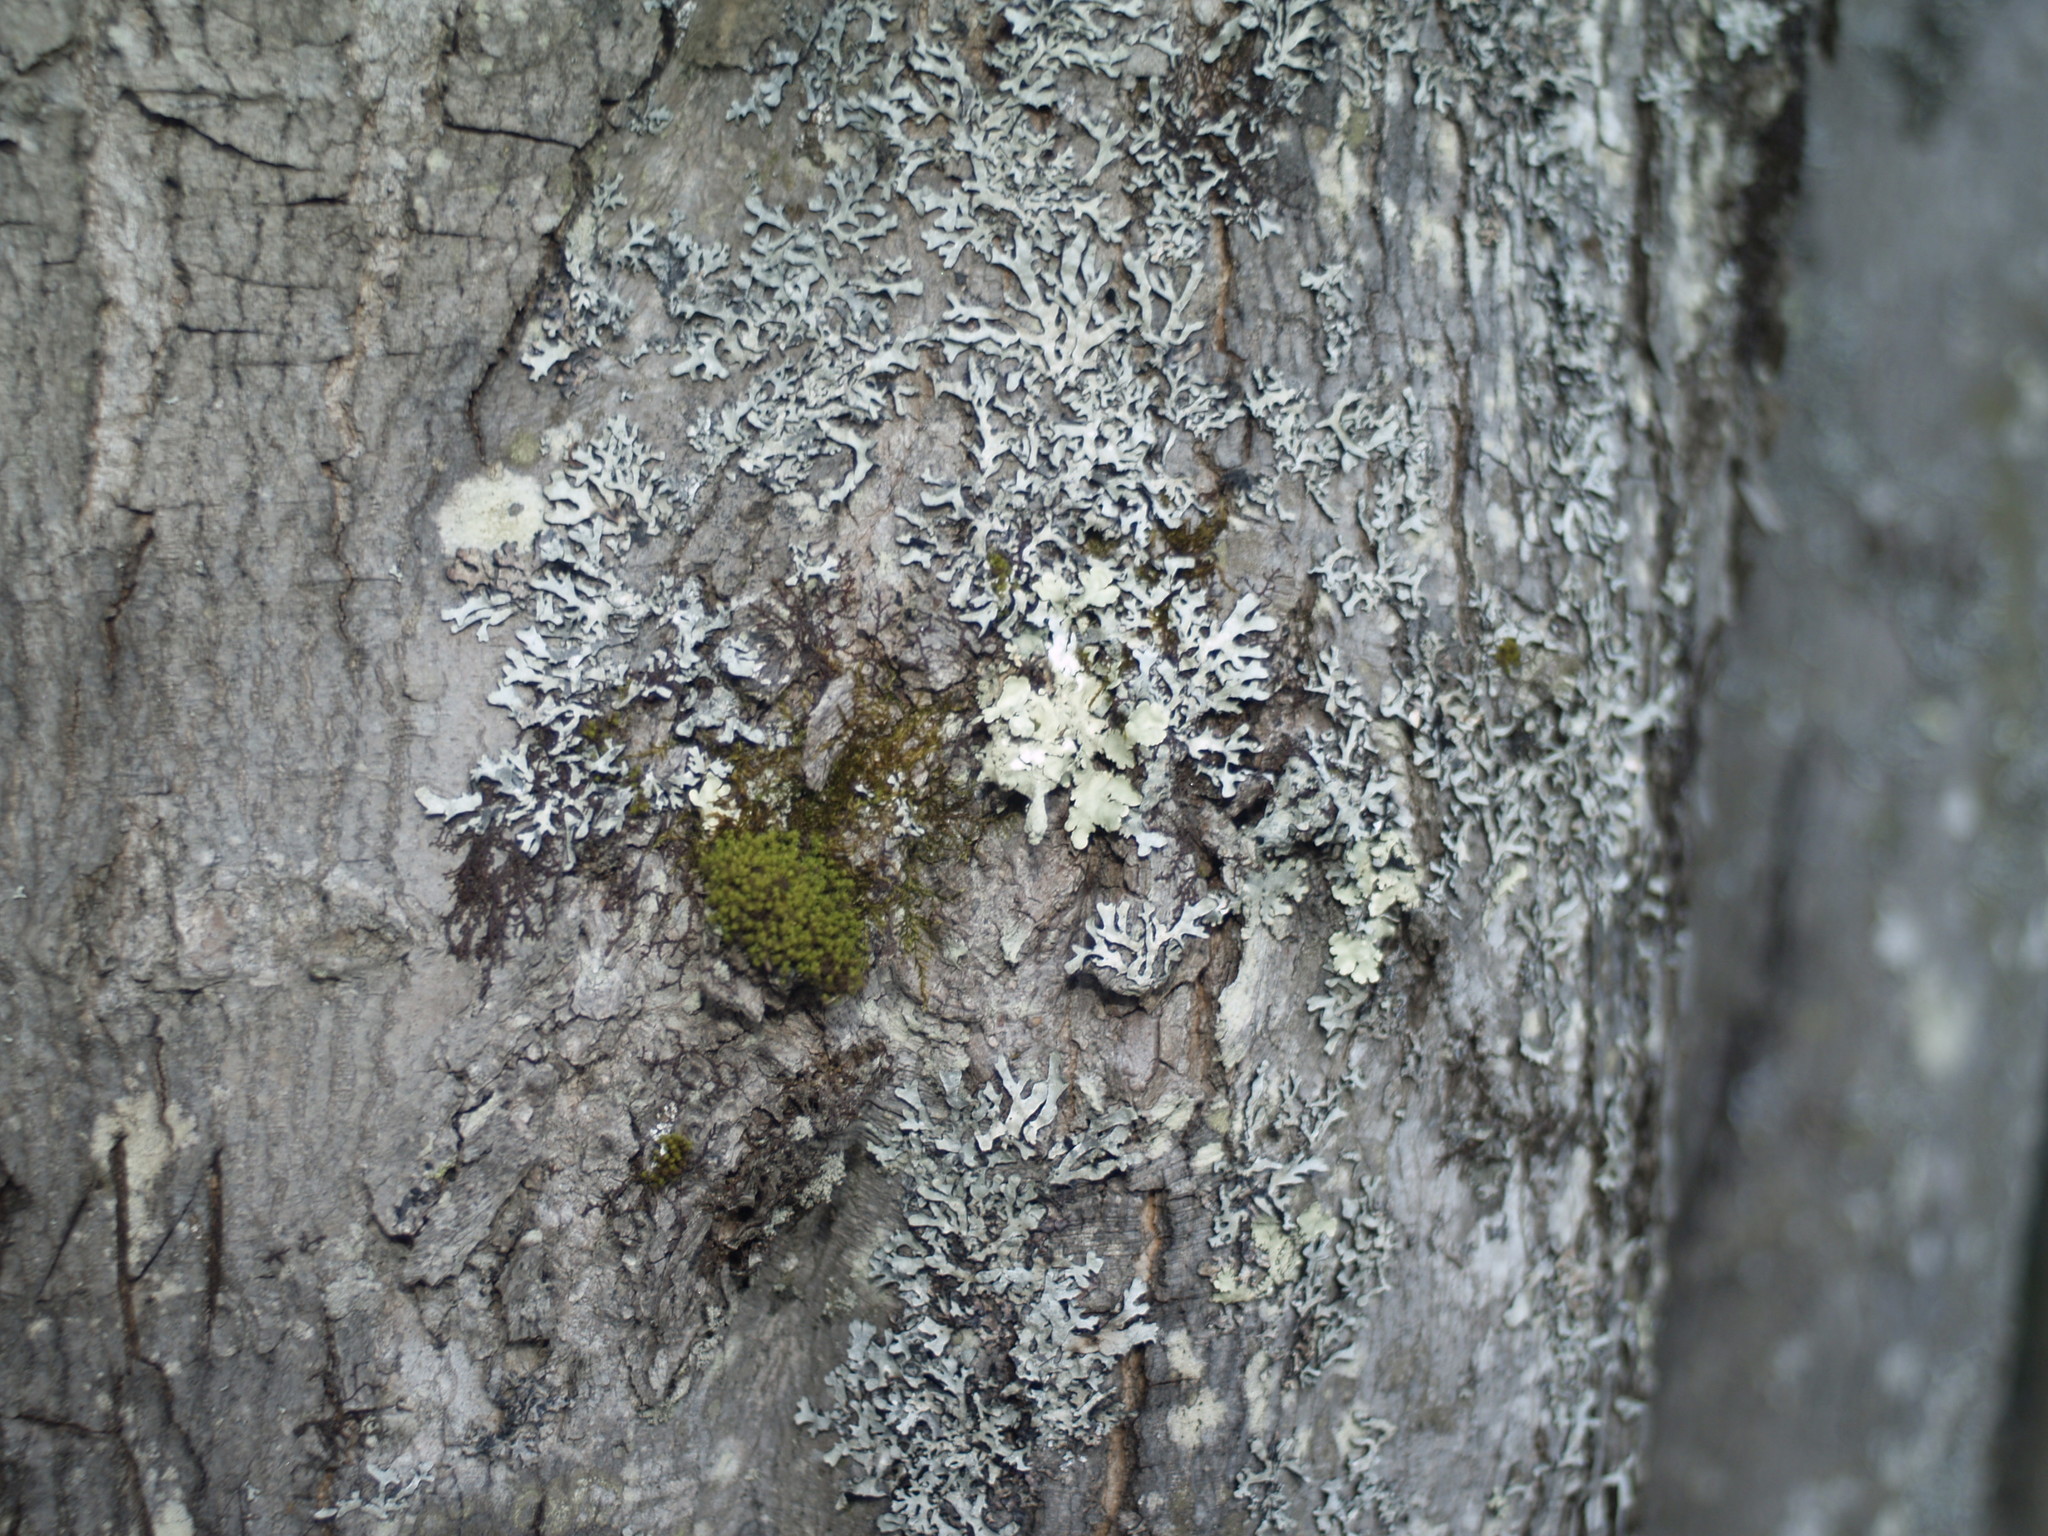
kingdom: Plantae
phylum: Bryophyta
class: Bryopsida
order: Orthotrichales
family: Orthotrichaceae
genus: Ulota
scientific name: Ulota crispa
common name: Crisped pincushion moss
